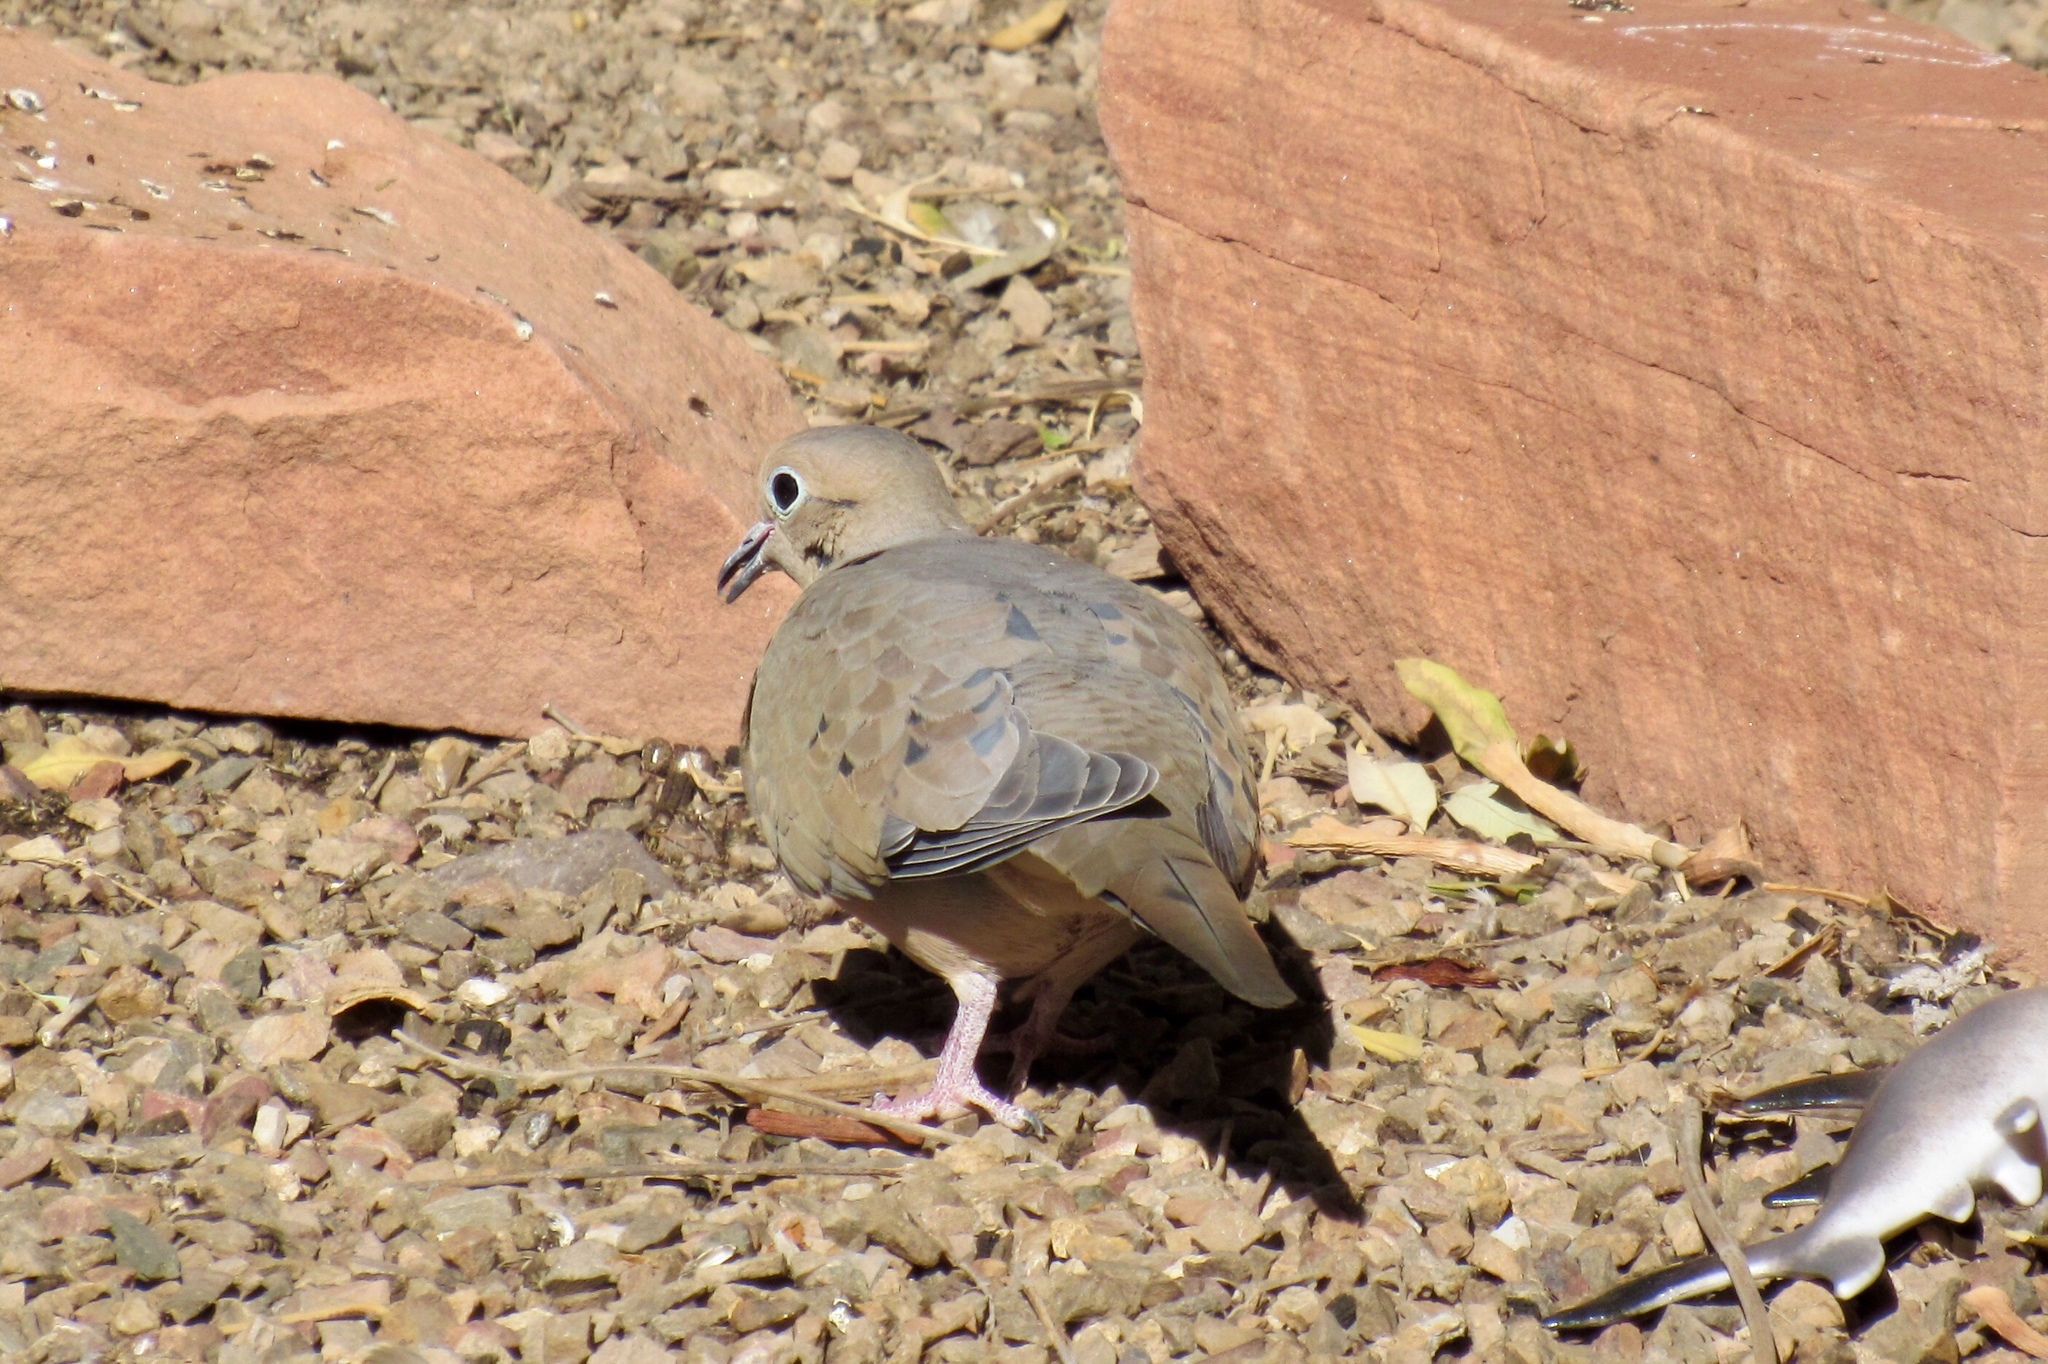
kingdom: Animalia
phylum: Chordata
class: Aves
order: Columbiformes
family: Columbidae
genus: Zenaida
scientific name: Zenaida macroura
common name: Mourning dove
